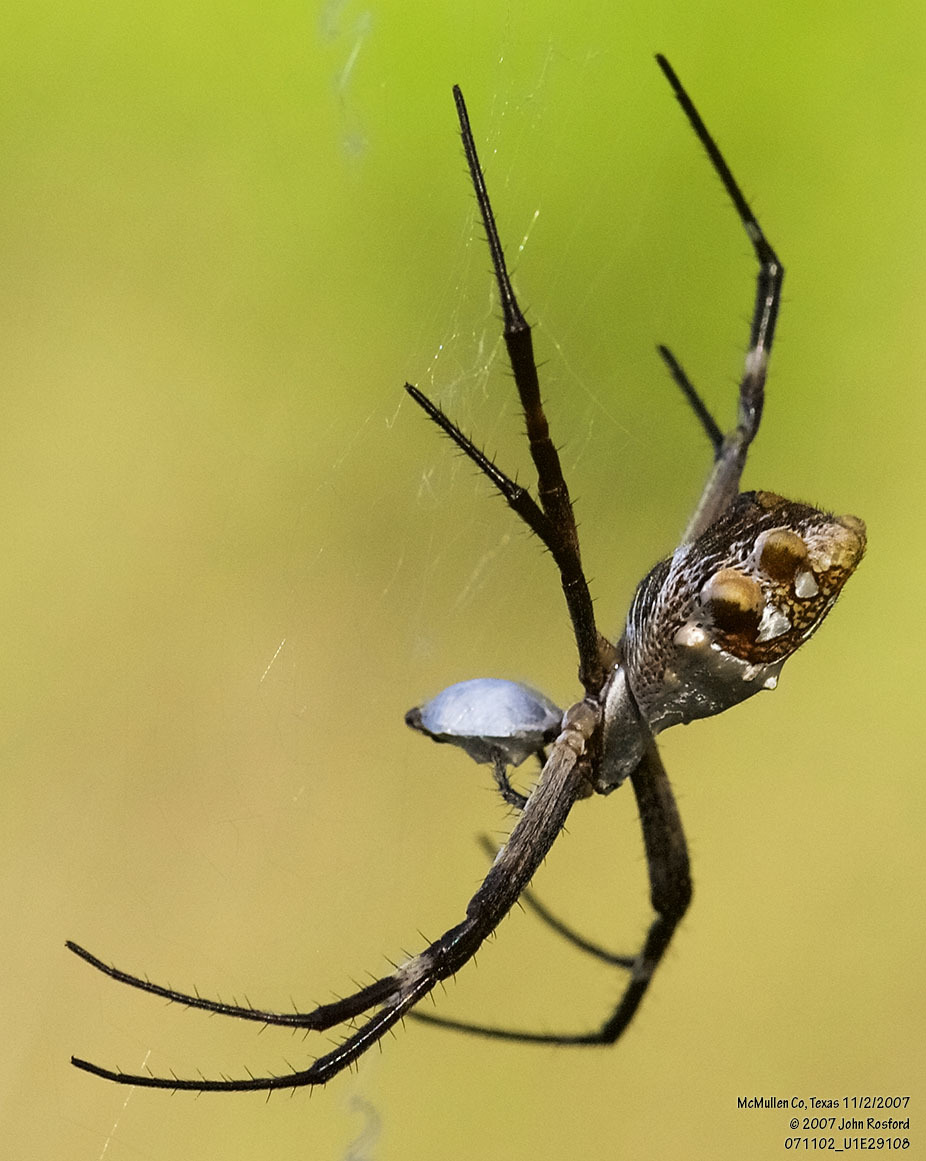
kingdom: Animalia
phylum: Arthropoda
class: Arachnida
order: Araneae
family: Araneidae
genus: Argiope
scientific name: Argiope argentata
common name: Orb weavers
